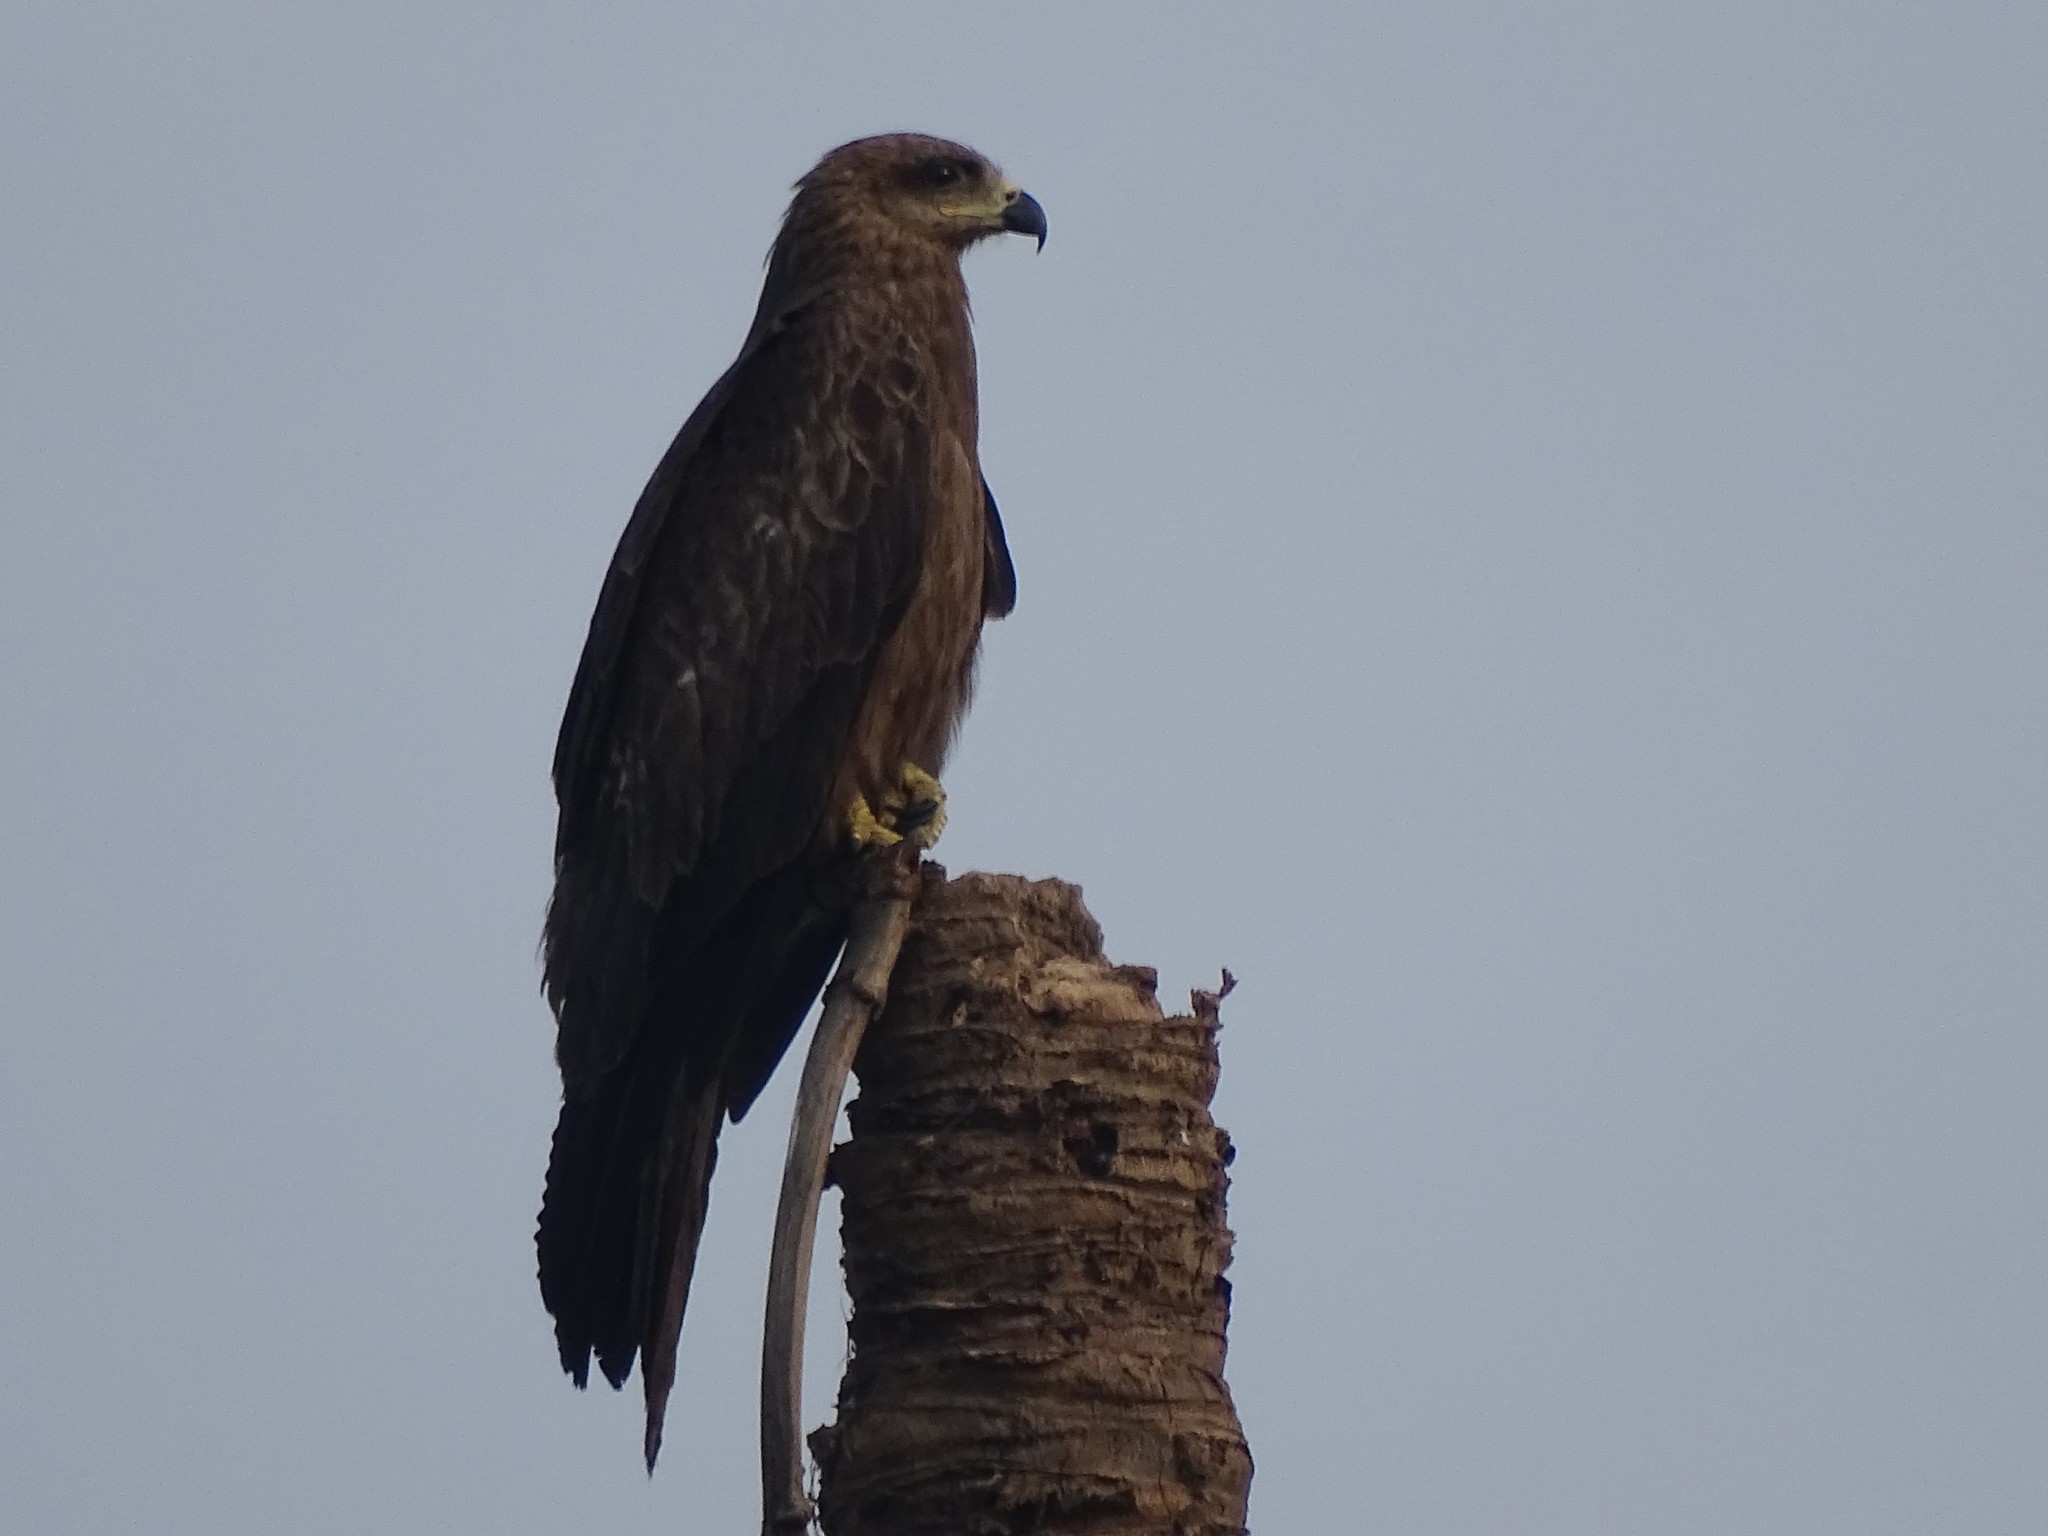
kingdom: Animalia
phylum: Chordata
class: Aves
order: Accipitriformes
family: Accipitridae
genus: Milvus
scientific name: Milvus migrans
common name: Black kite
